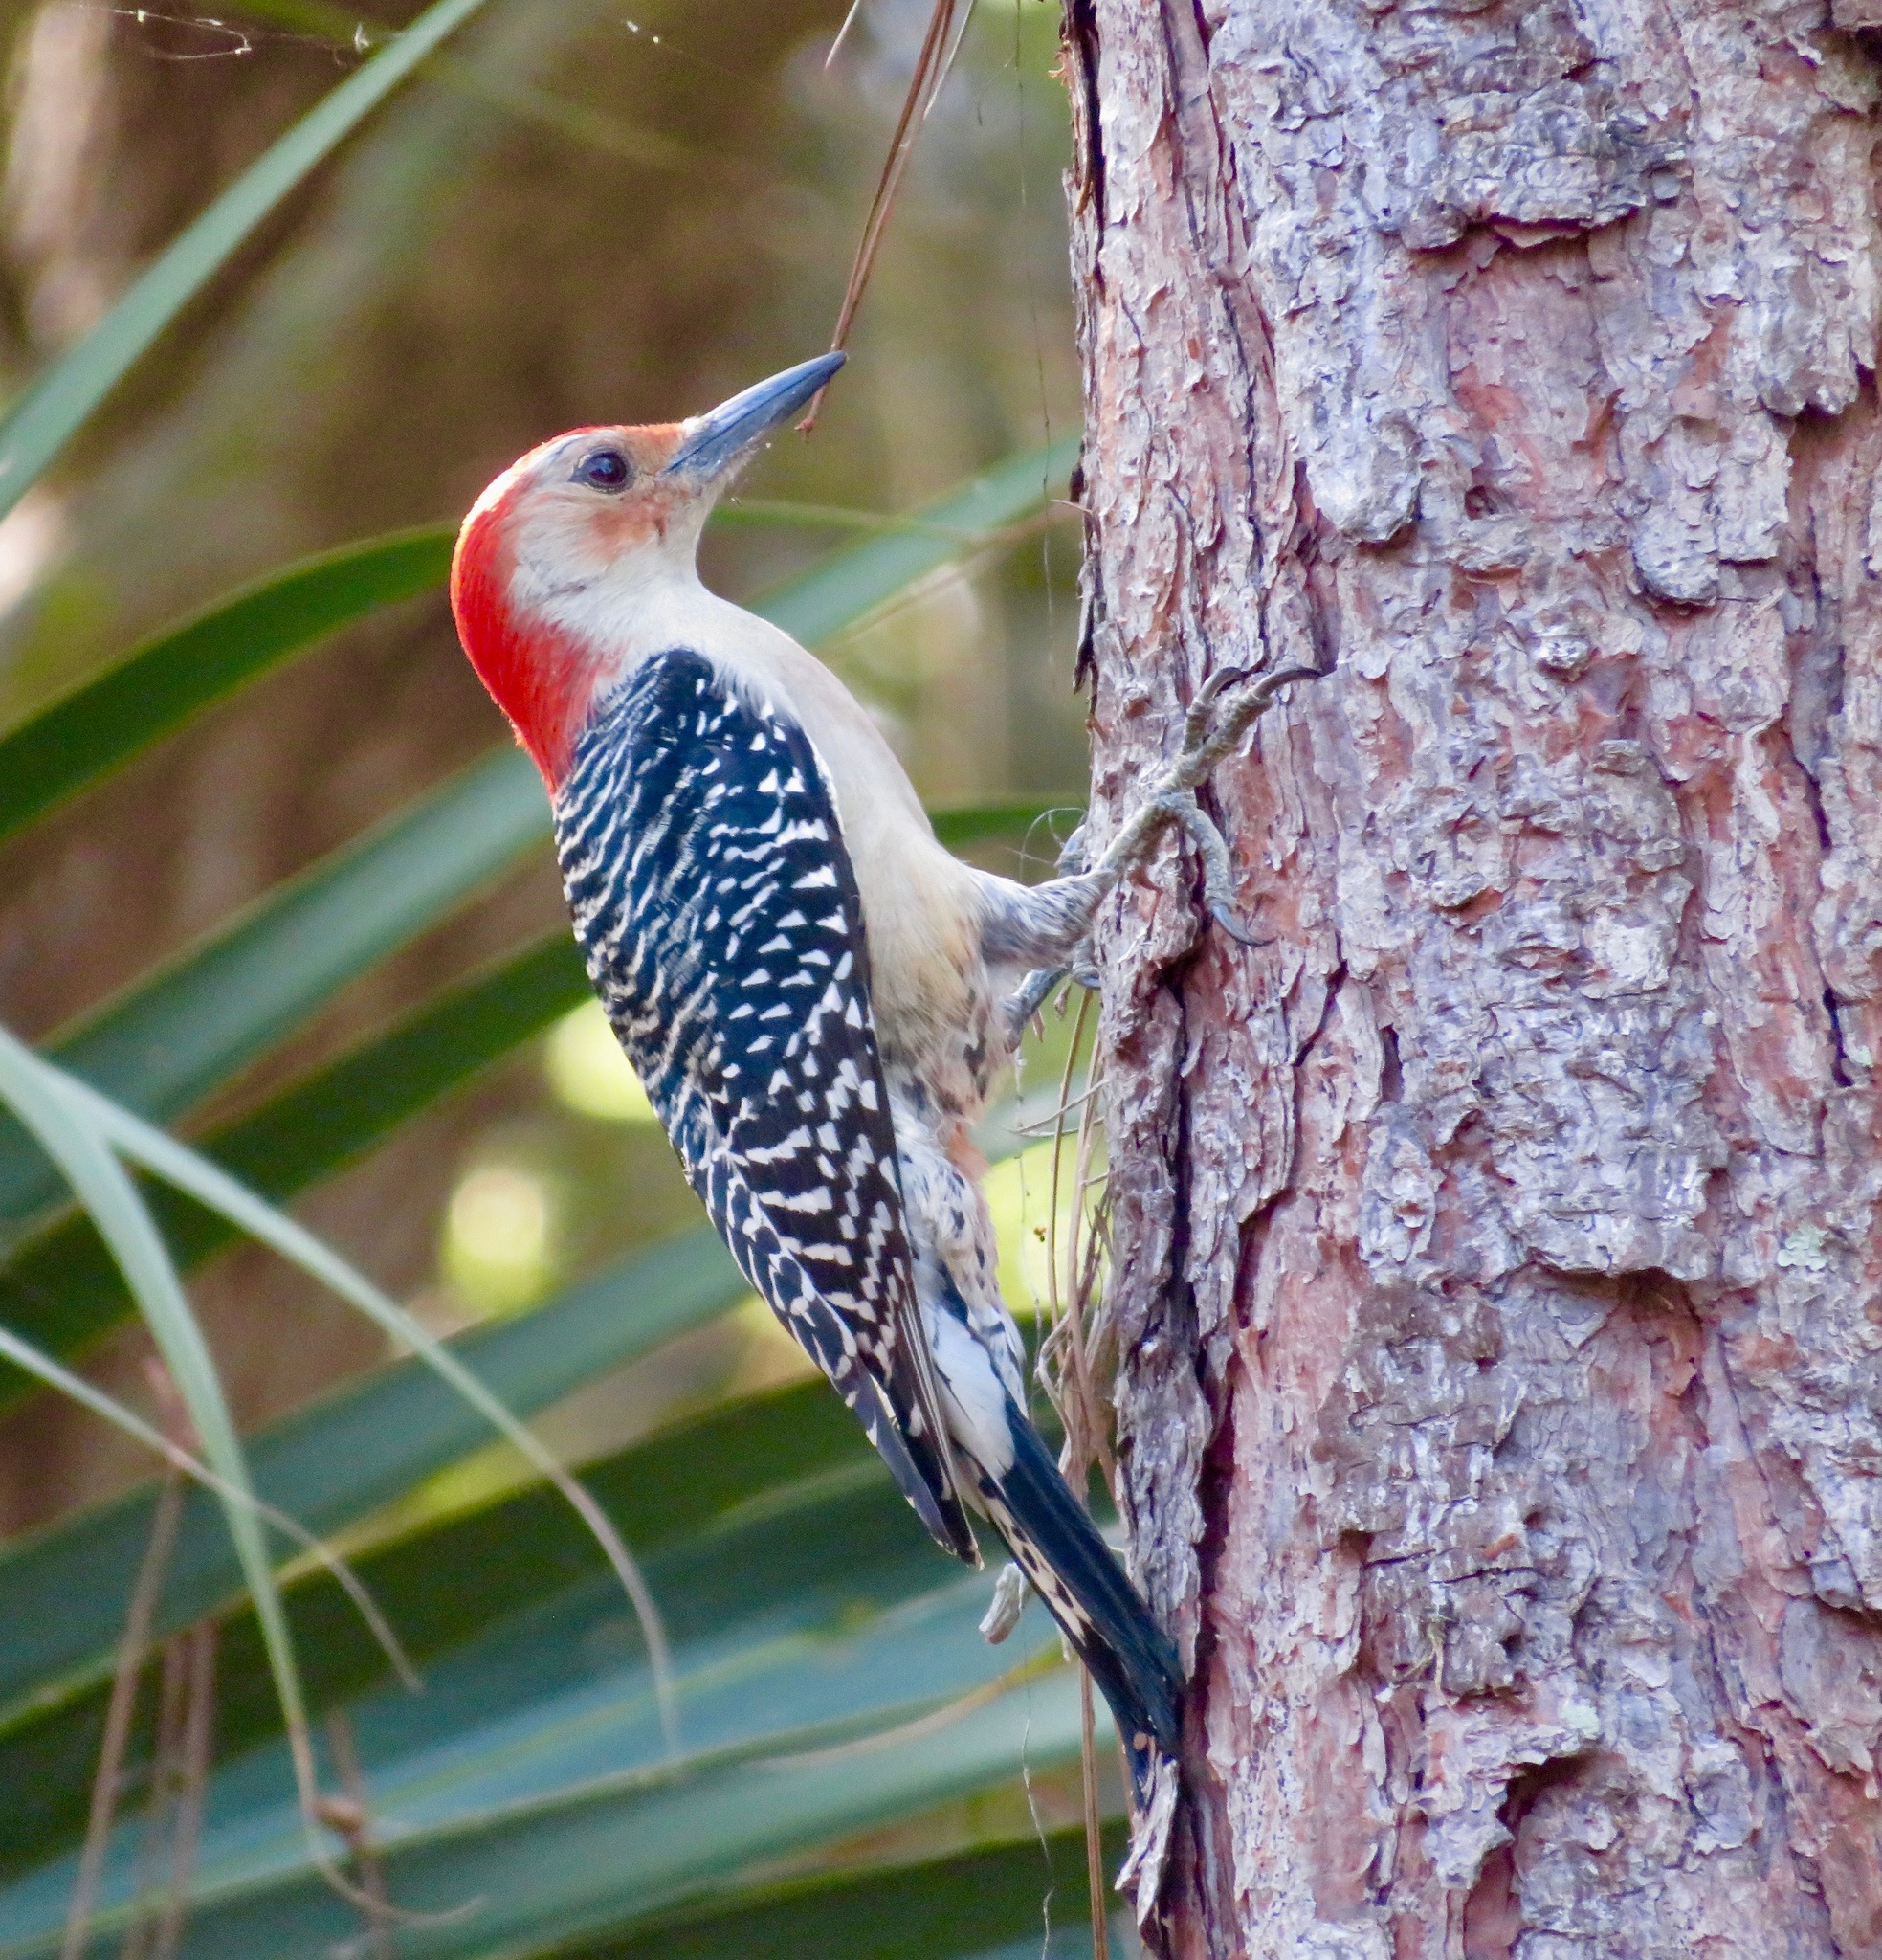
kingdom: Animalia
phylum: Chordata
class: Aves
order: Piciformes
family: Picidae
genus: Melanerpes
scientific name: Melanerpes carolinus
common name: Red-bellied woodpecker
